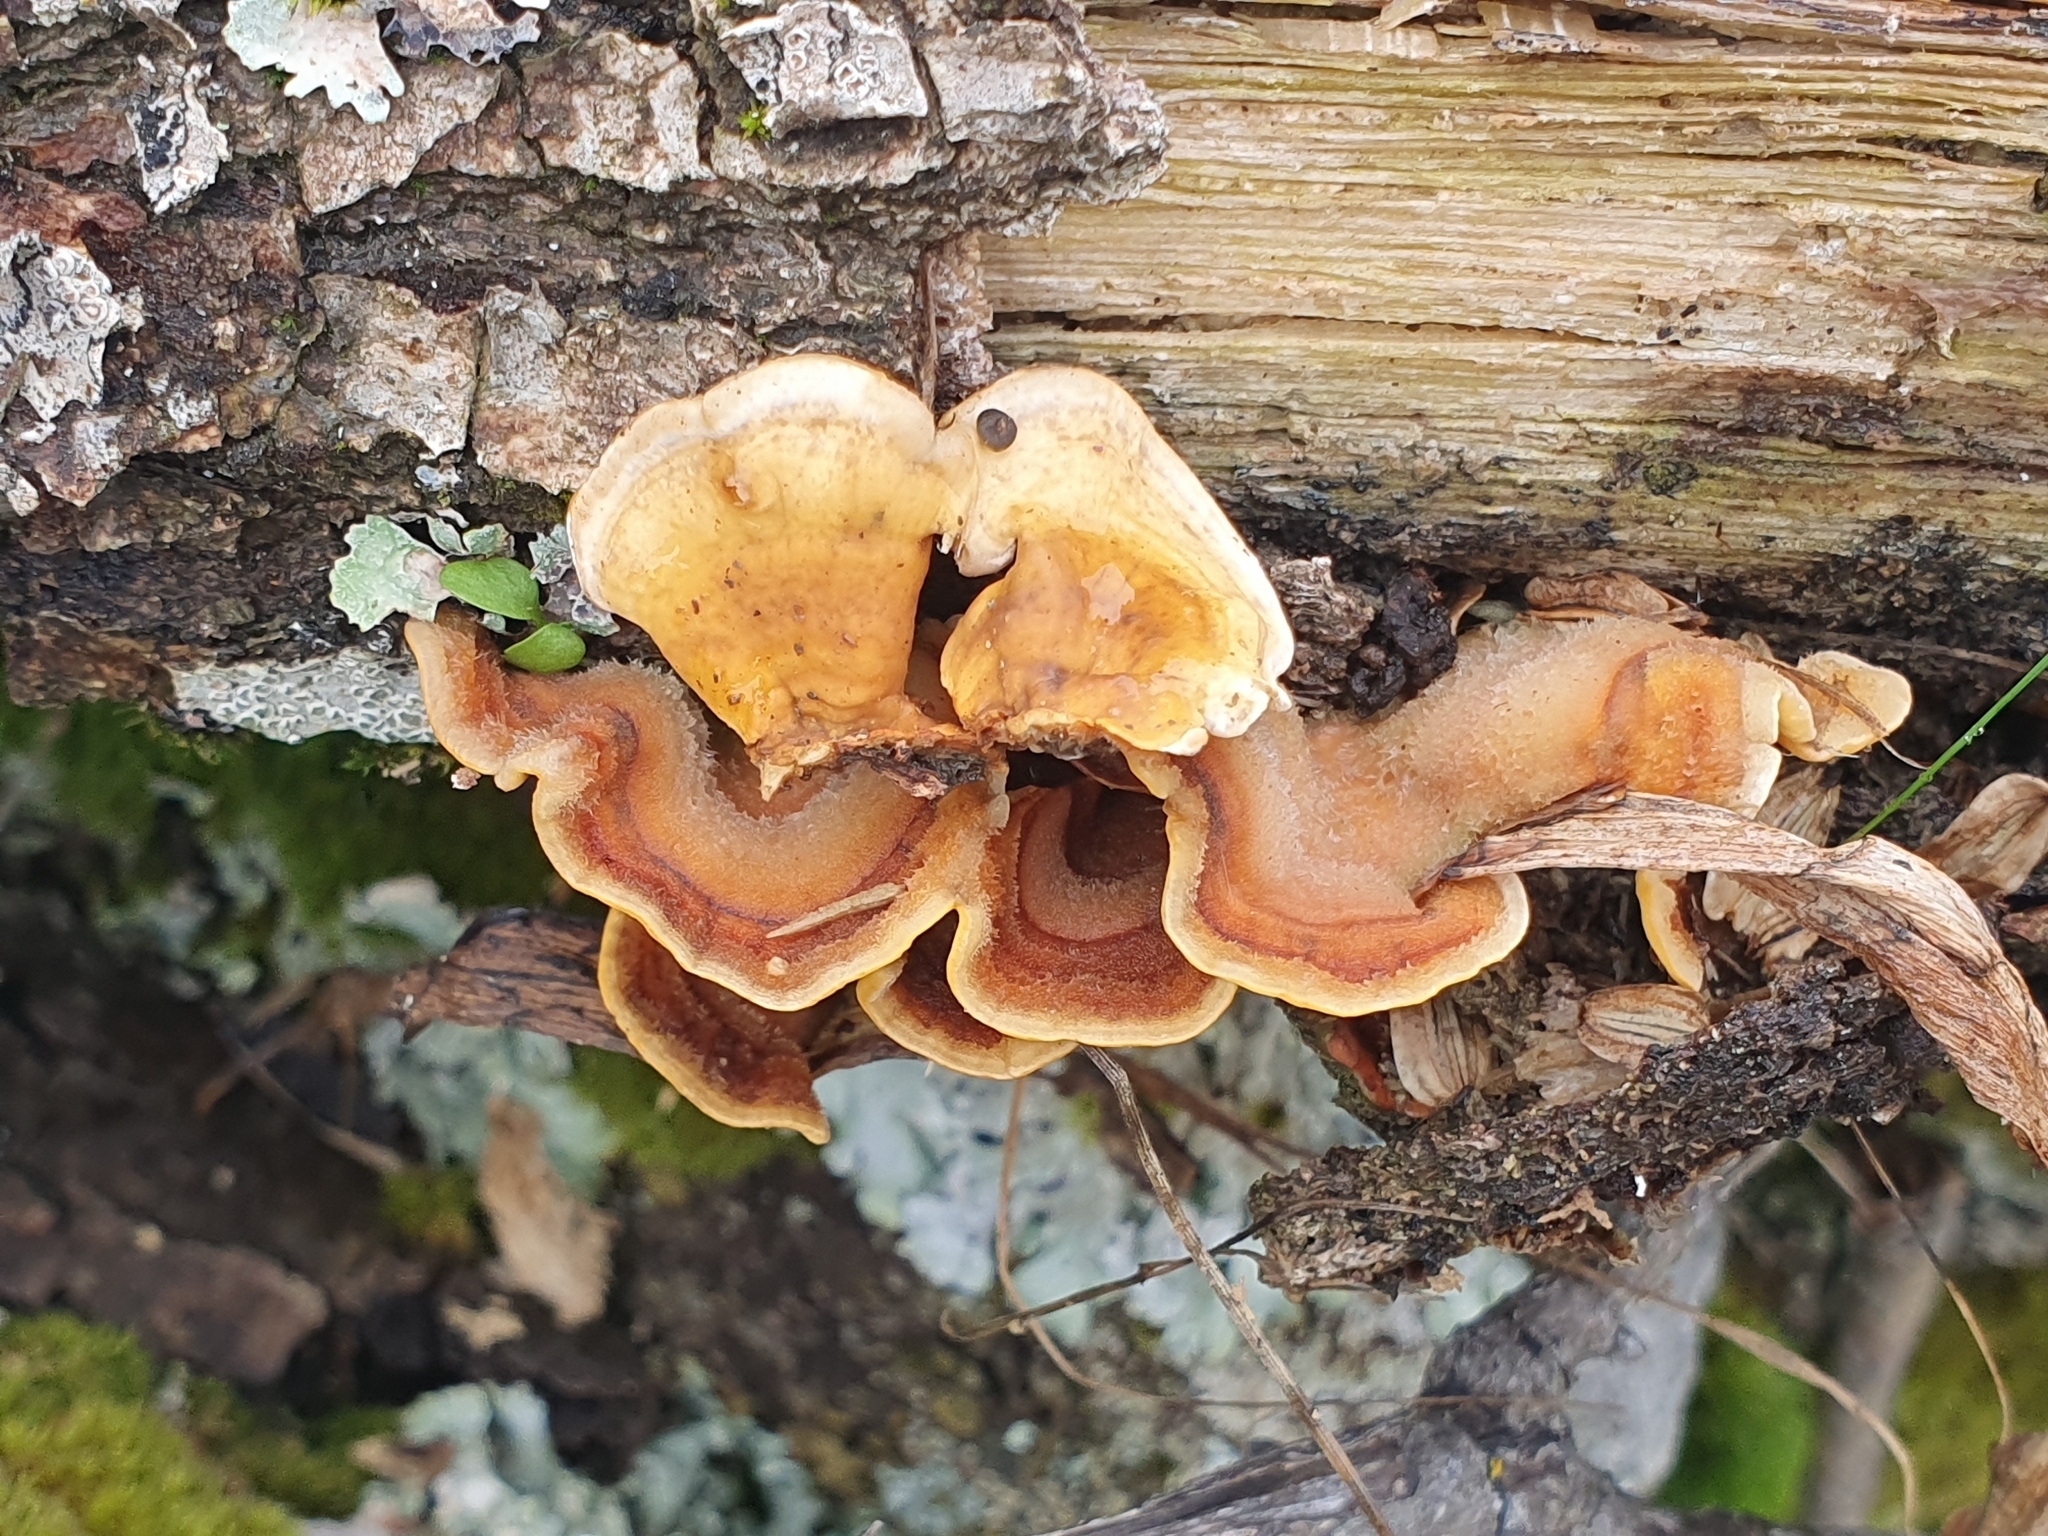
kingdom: Fungi
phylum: Basidiomycota
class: Agaricomycetes
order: Russulales
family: Stereaceae
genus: Stereum
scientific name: Stereum hirsutum
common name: Hairy curtain crust
